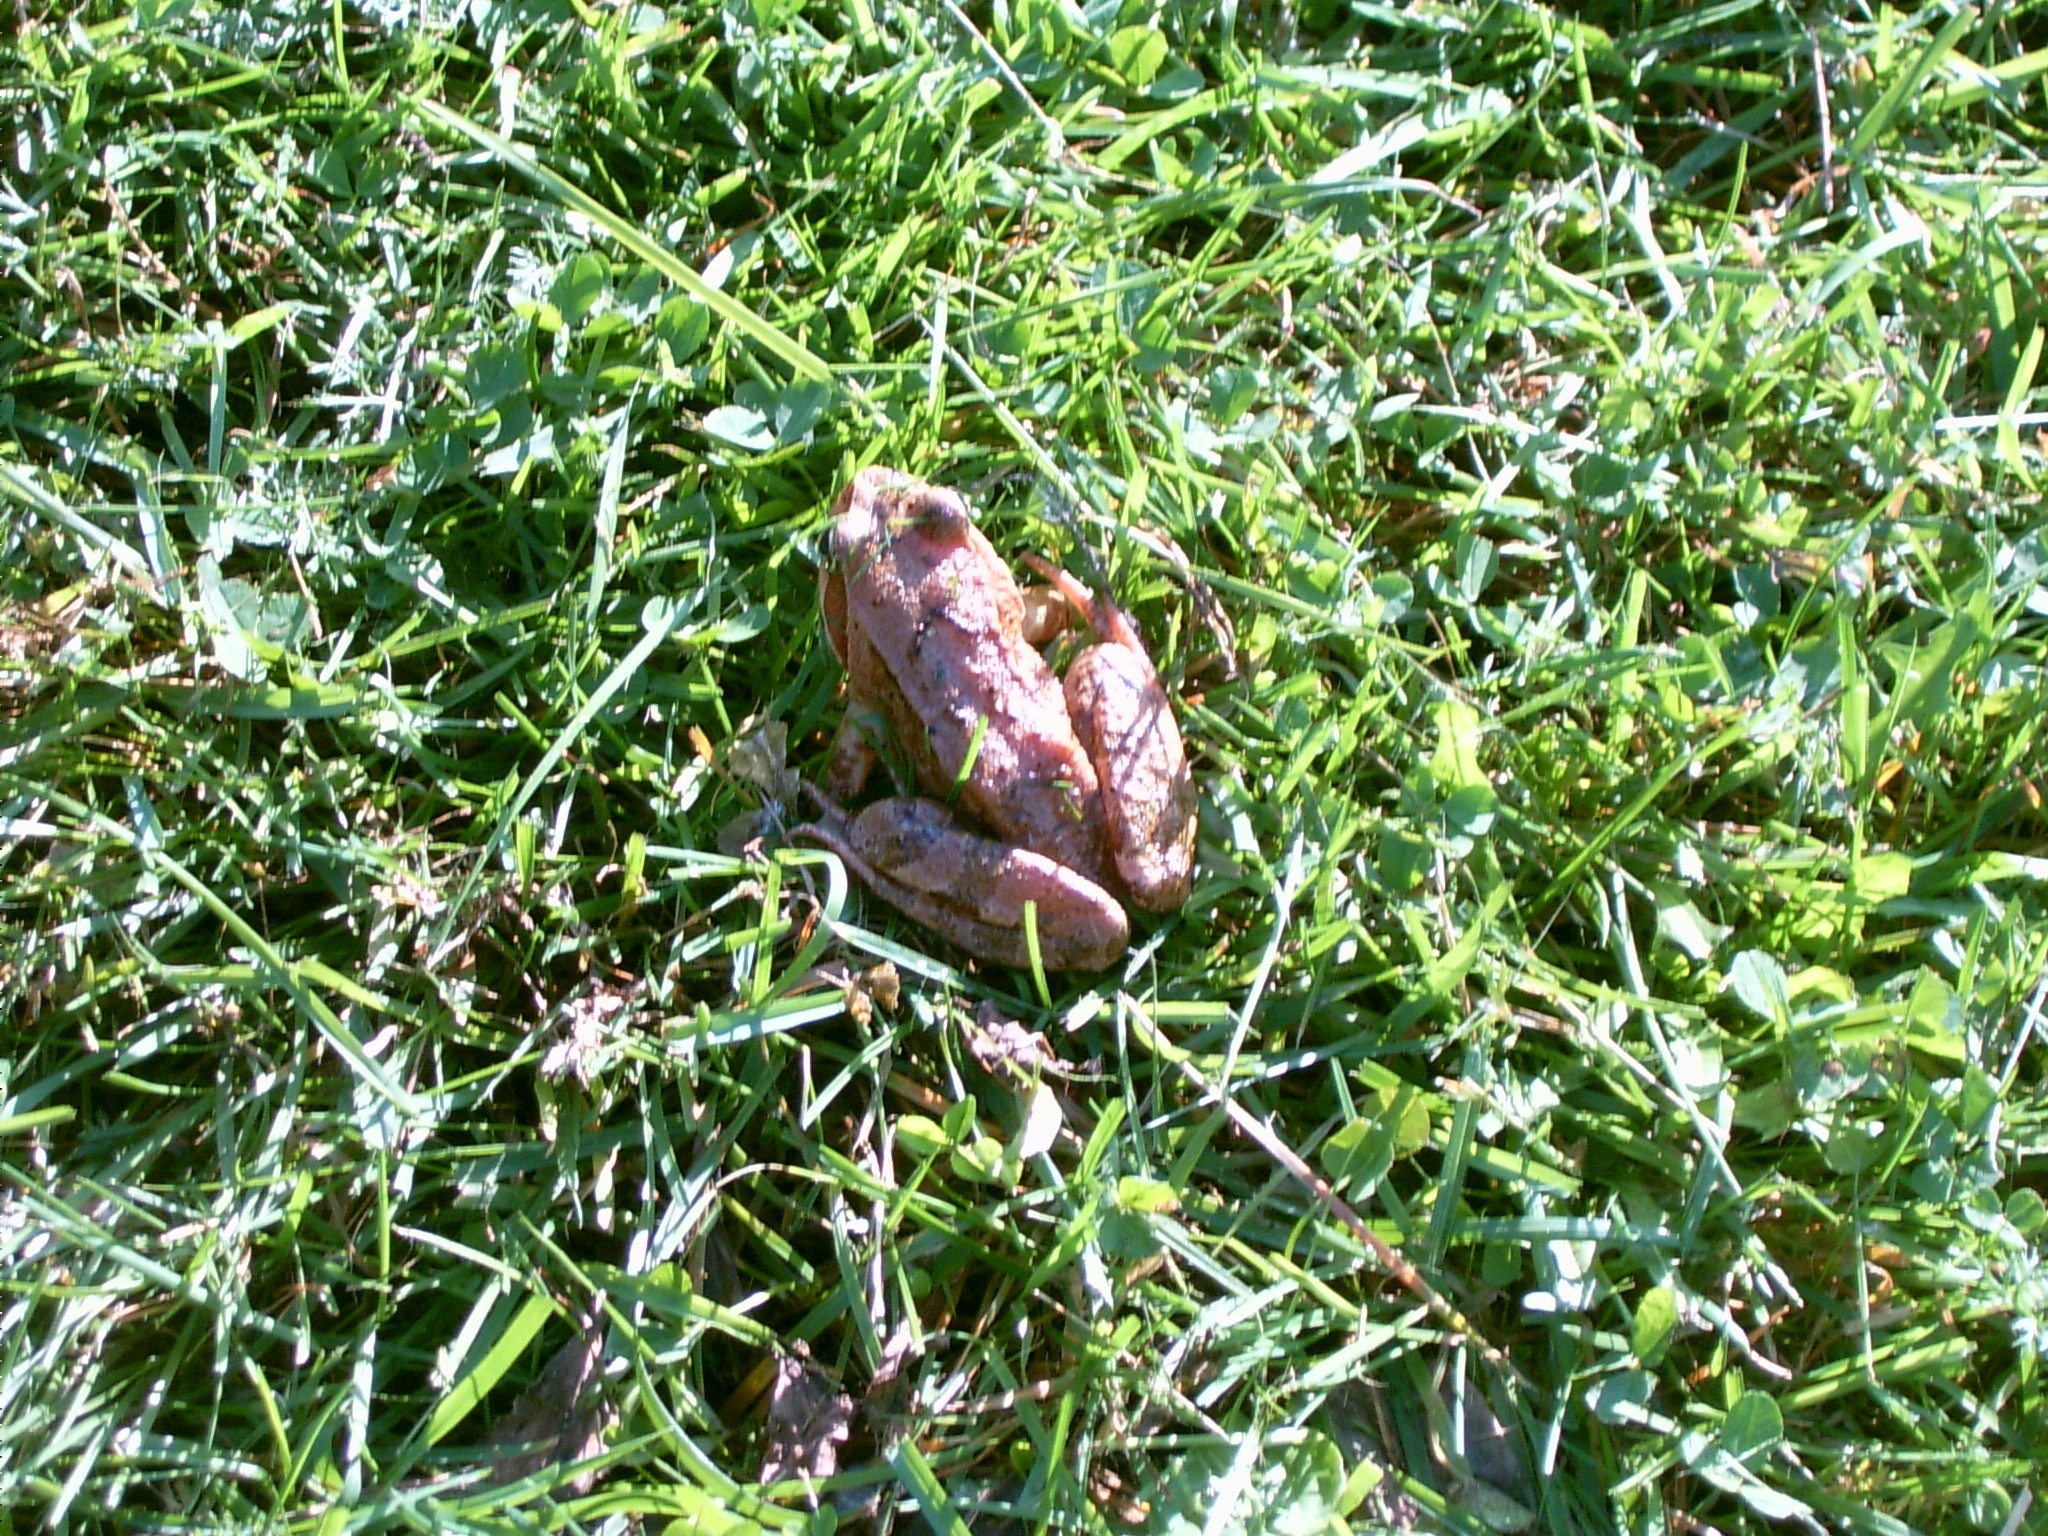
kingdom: Animalia
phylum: Chordata
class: Amphibia
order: Anura
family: Ranidae
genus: Rana
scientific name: Rana temporaria
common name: Common frog
